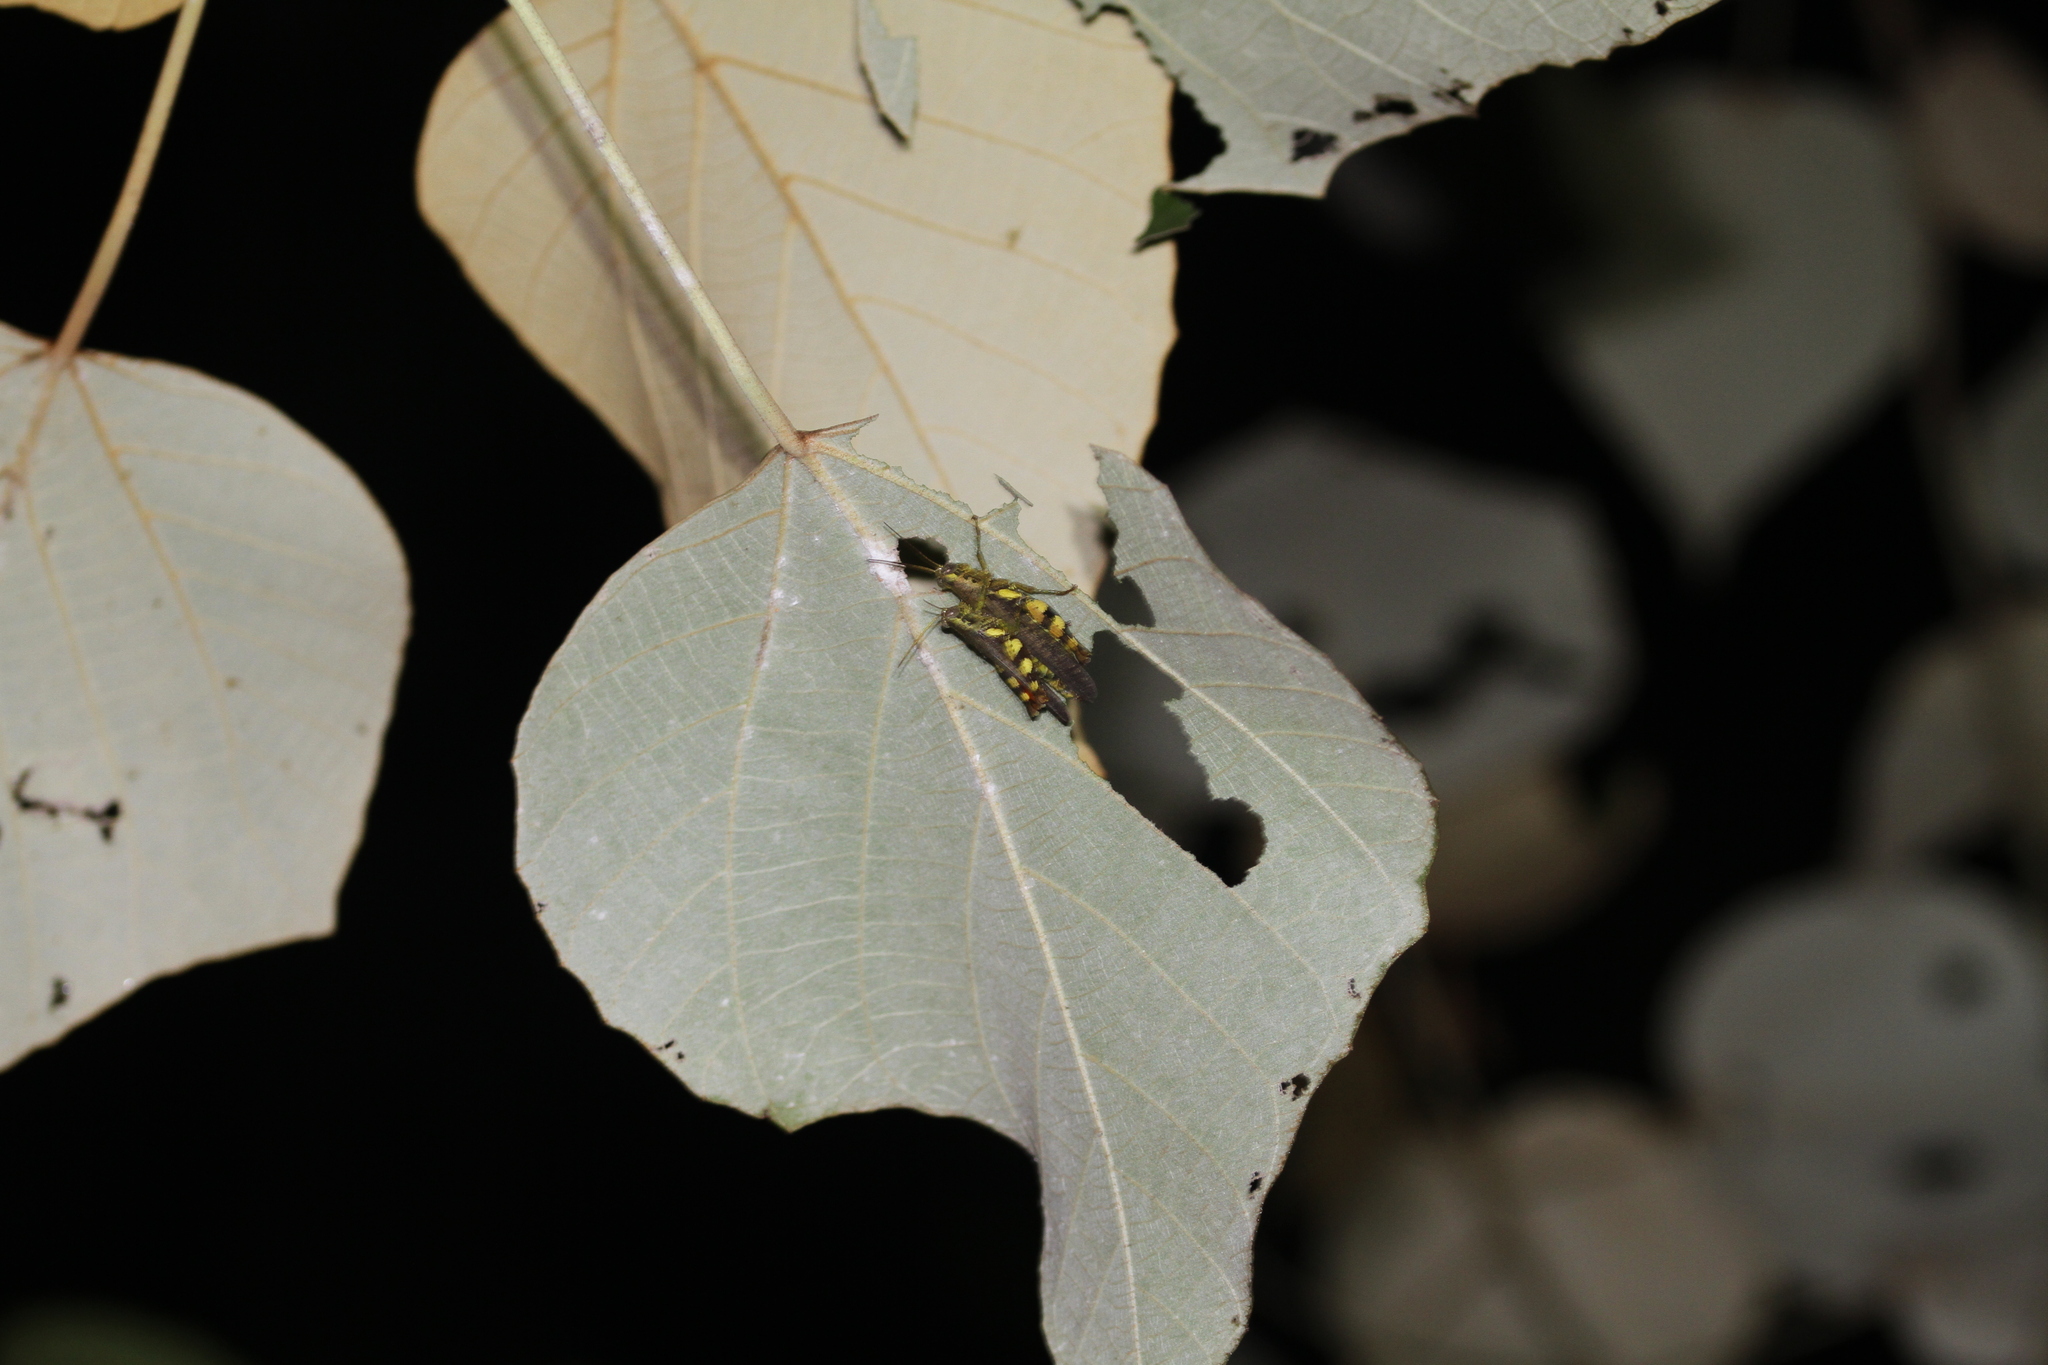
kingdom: Animalia
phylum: Arthropoda
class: Insecta
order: Orthoptera
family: Acrididae
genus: Xenocatantops
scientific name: Xenocatantops humile
